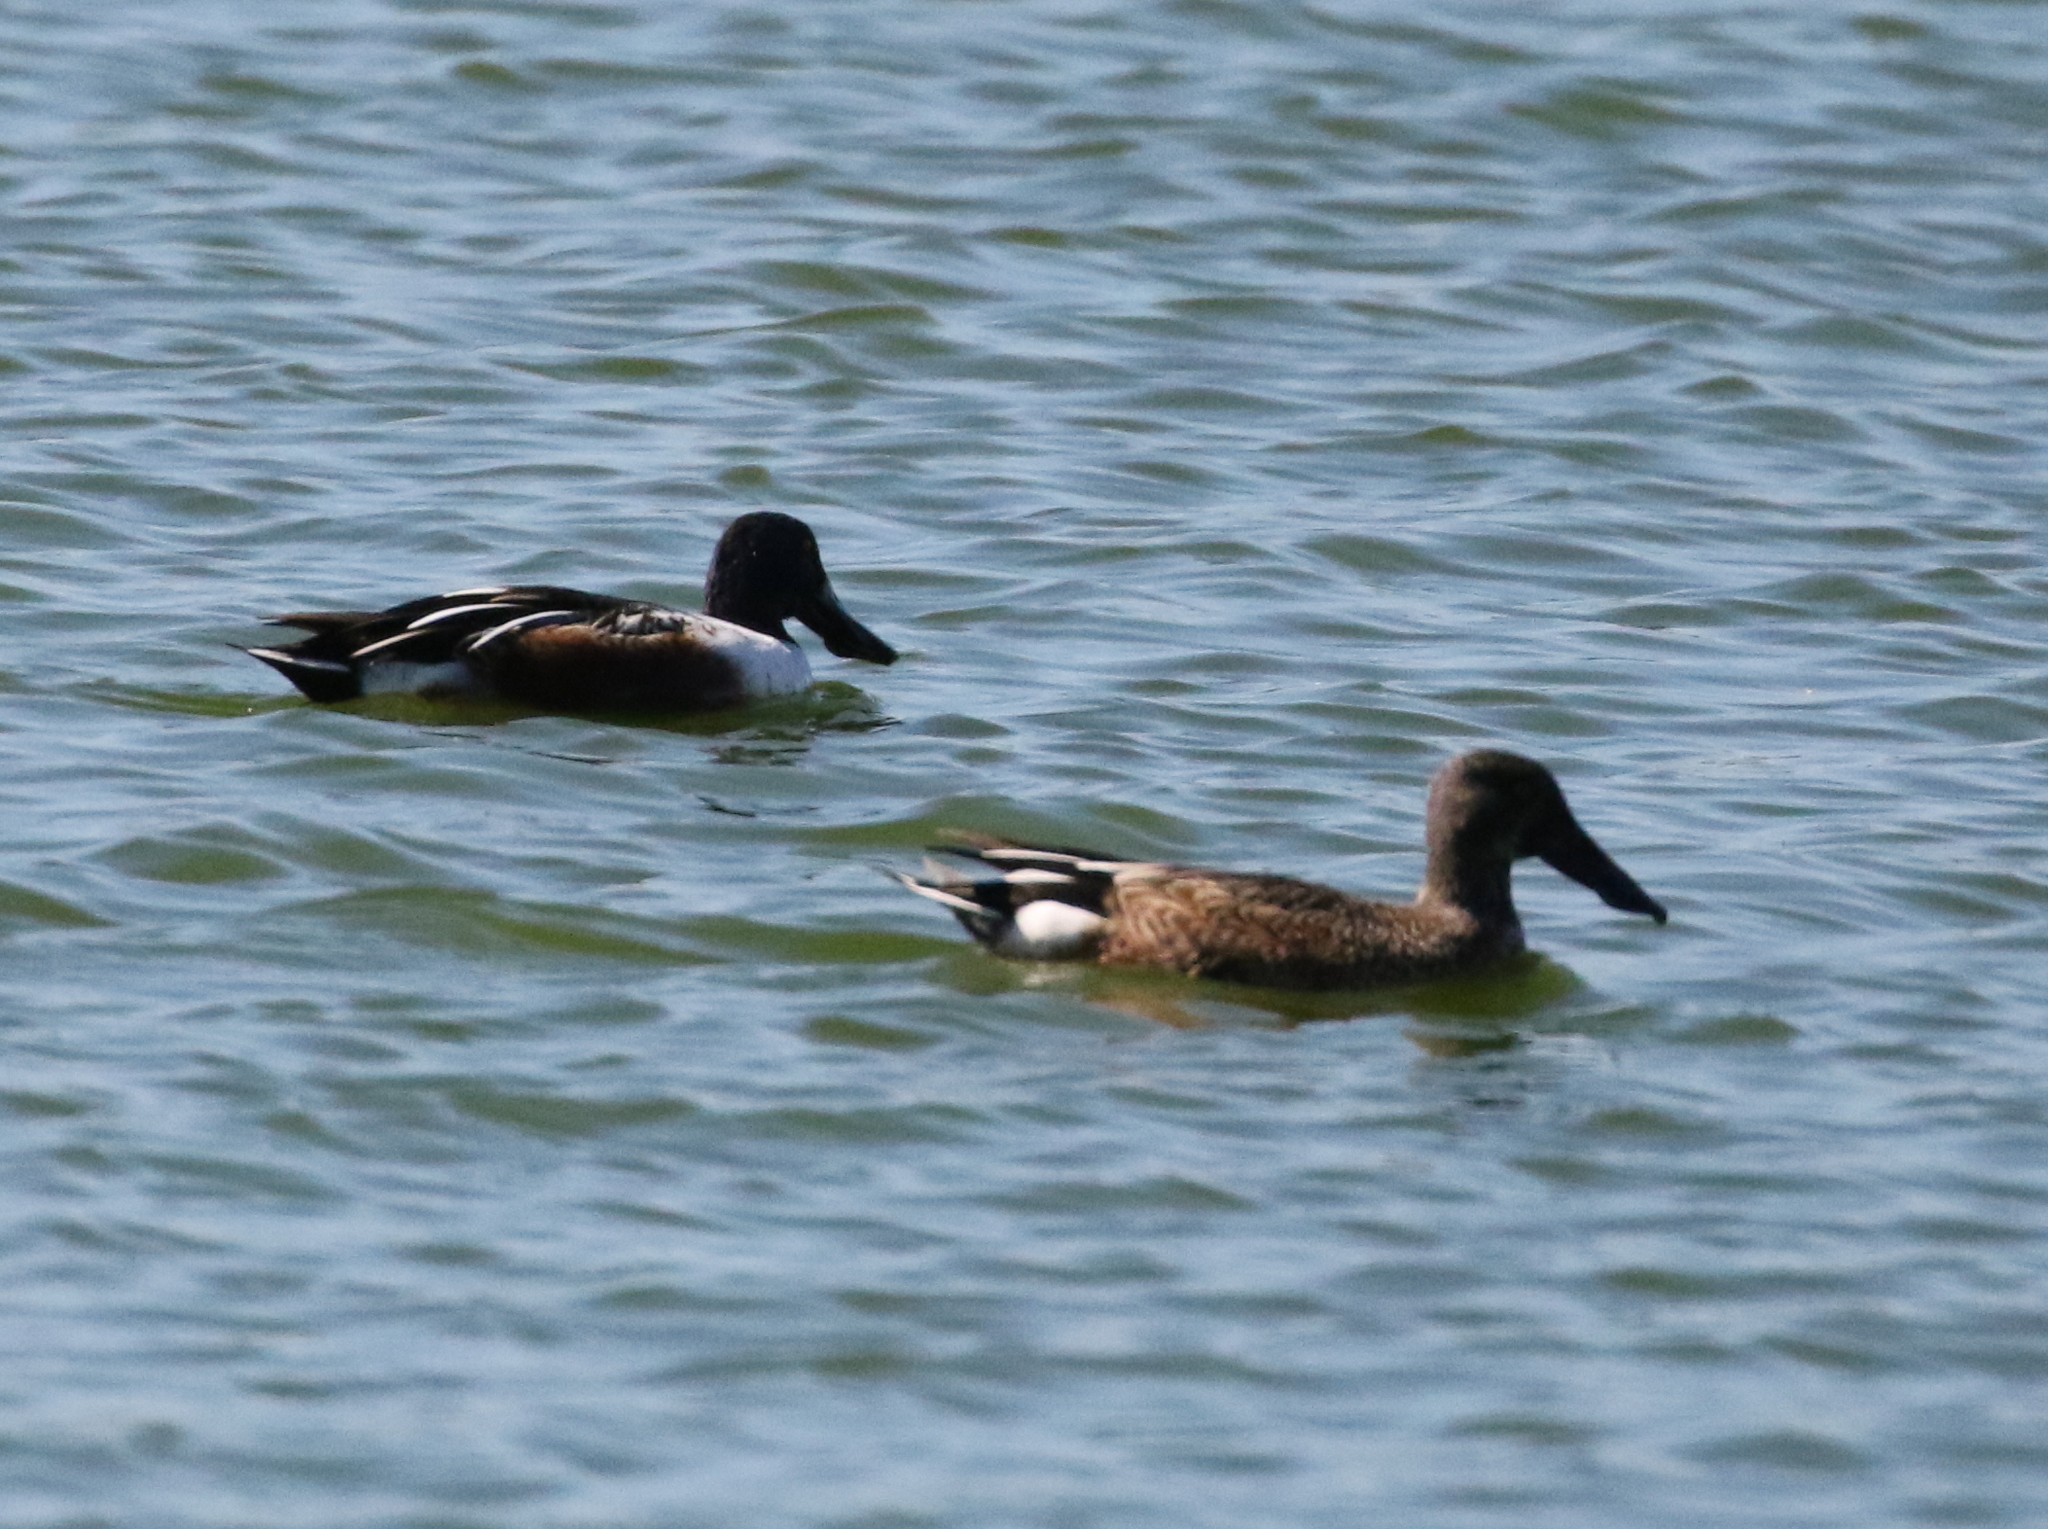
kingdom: Animalia
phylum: Chordata
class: Aves
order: Anseriformes
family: Anatidae
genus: Spatula
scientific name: Spatula clypeata
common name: Northern shoveler
